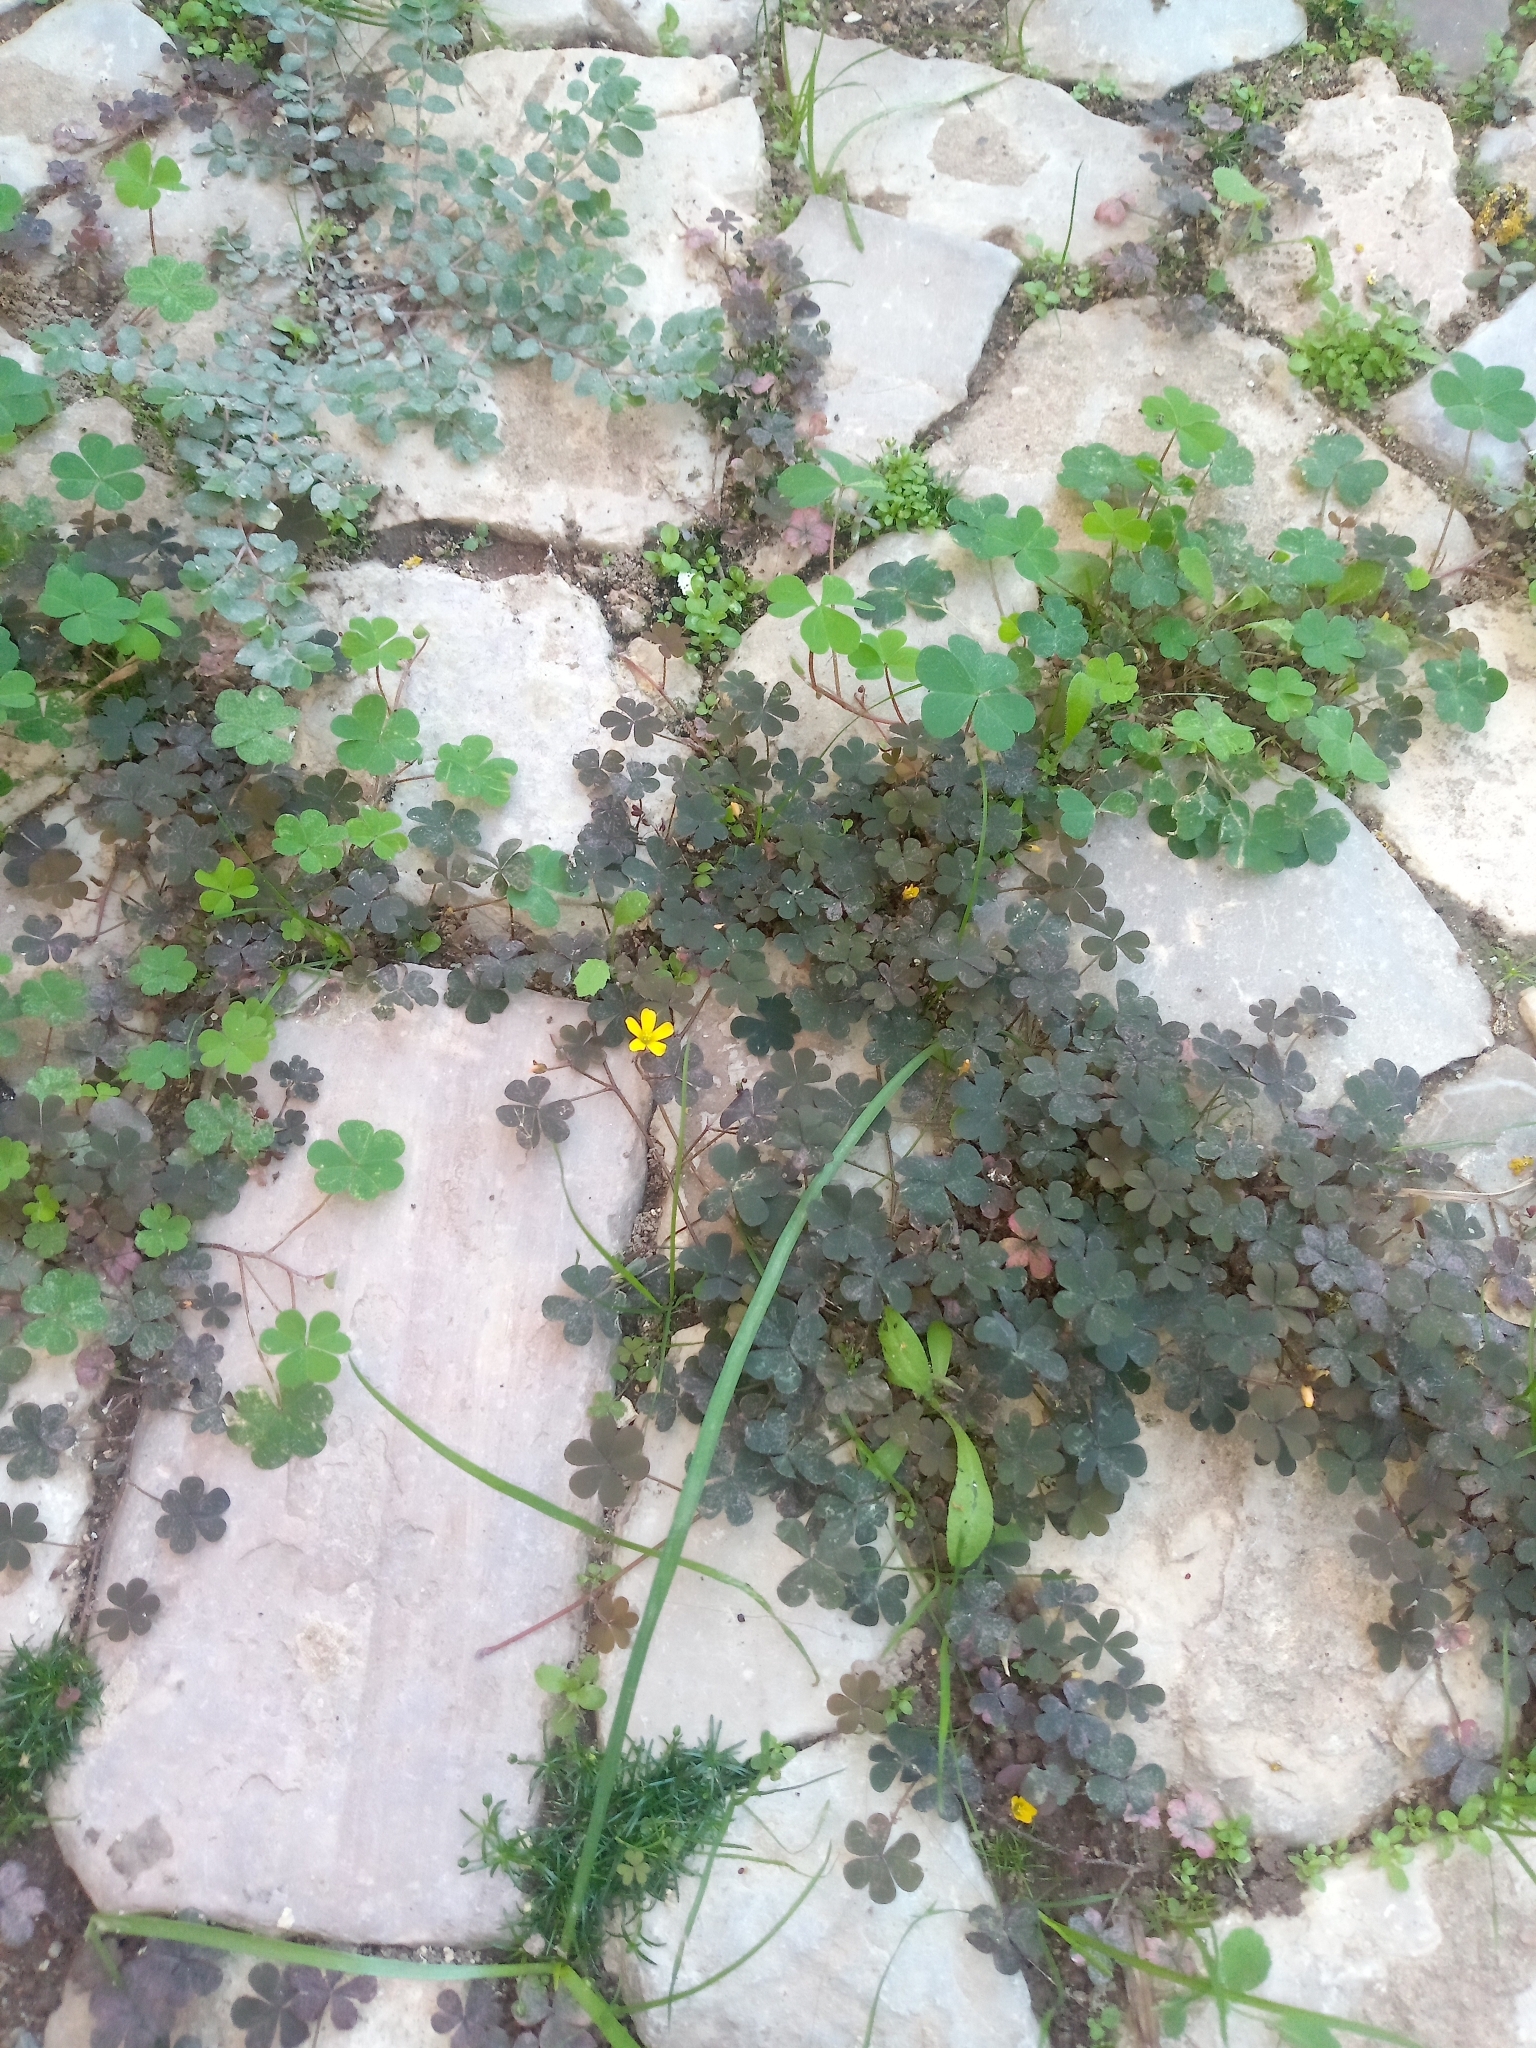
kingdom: Plantae
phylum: Tracheophyta
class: Magnoliopsida
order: Oxalidales
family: Oxalidaceae
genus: Oxalis
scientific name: Oxalis corniculata
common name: Procumbent yellow-sorrel
